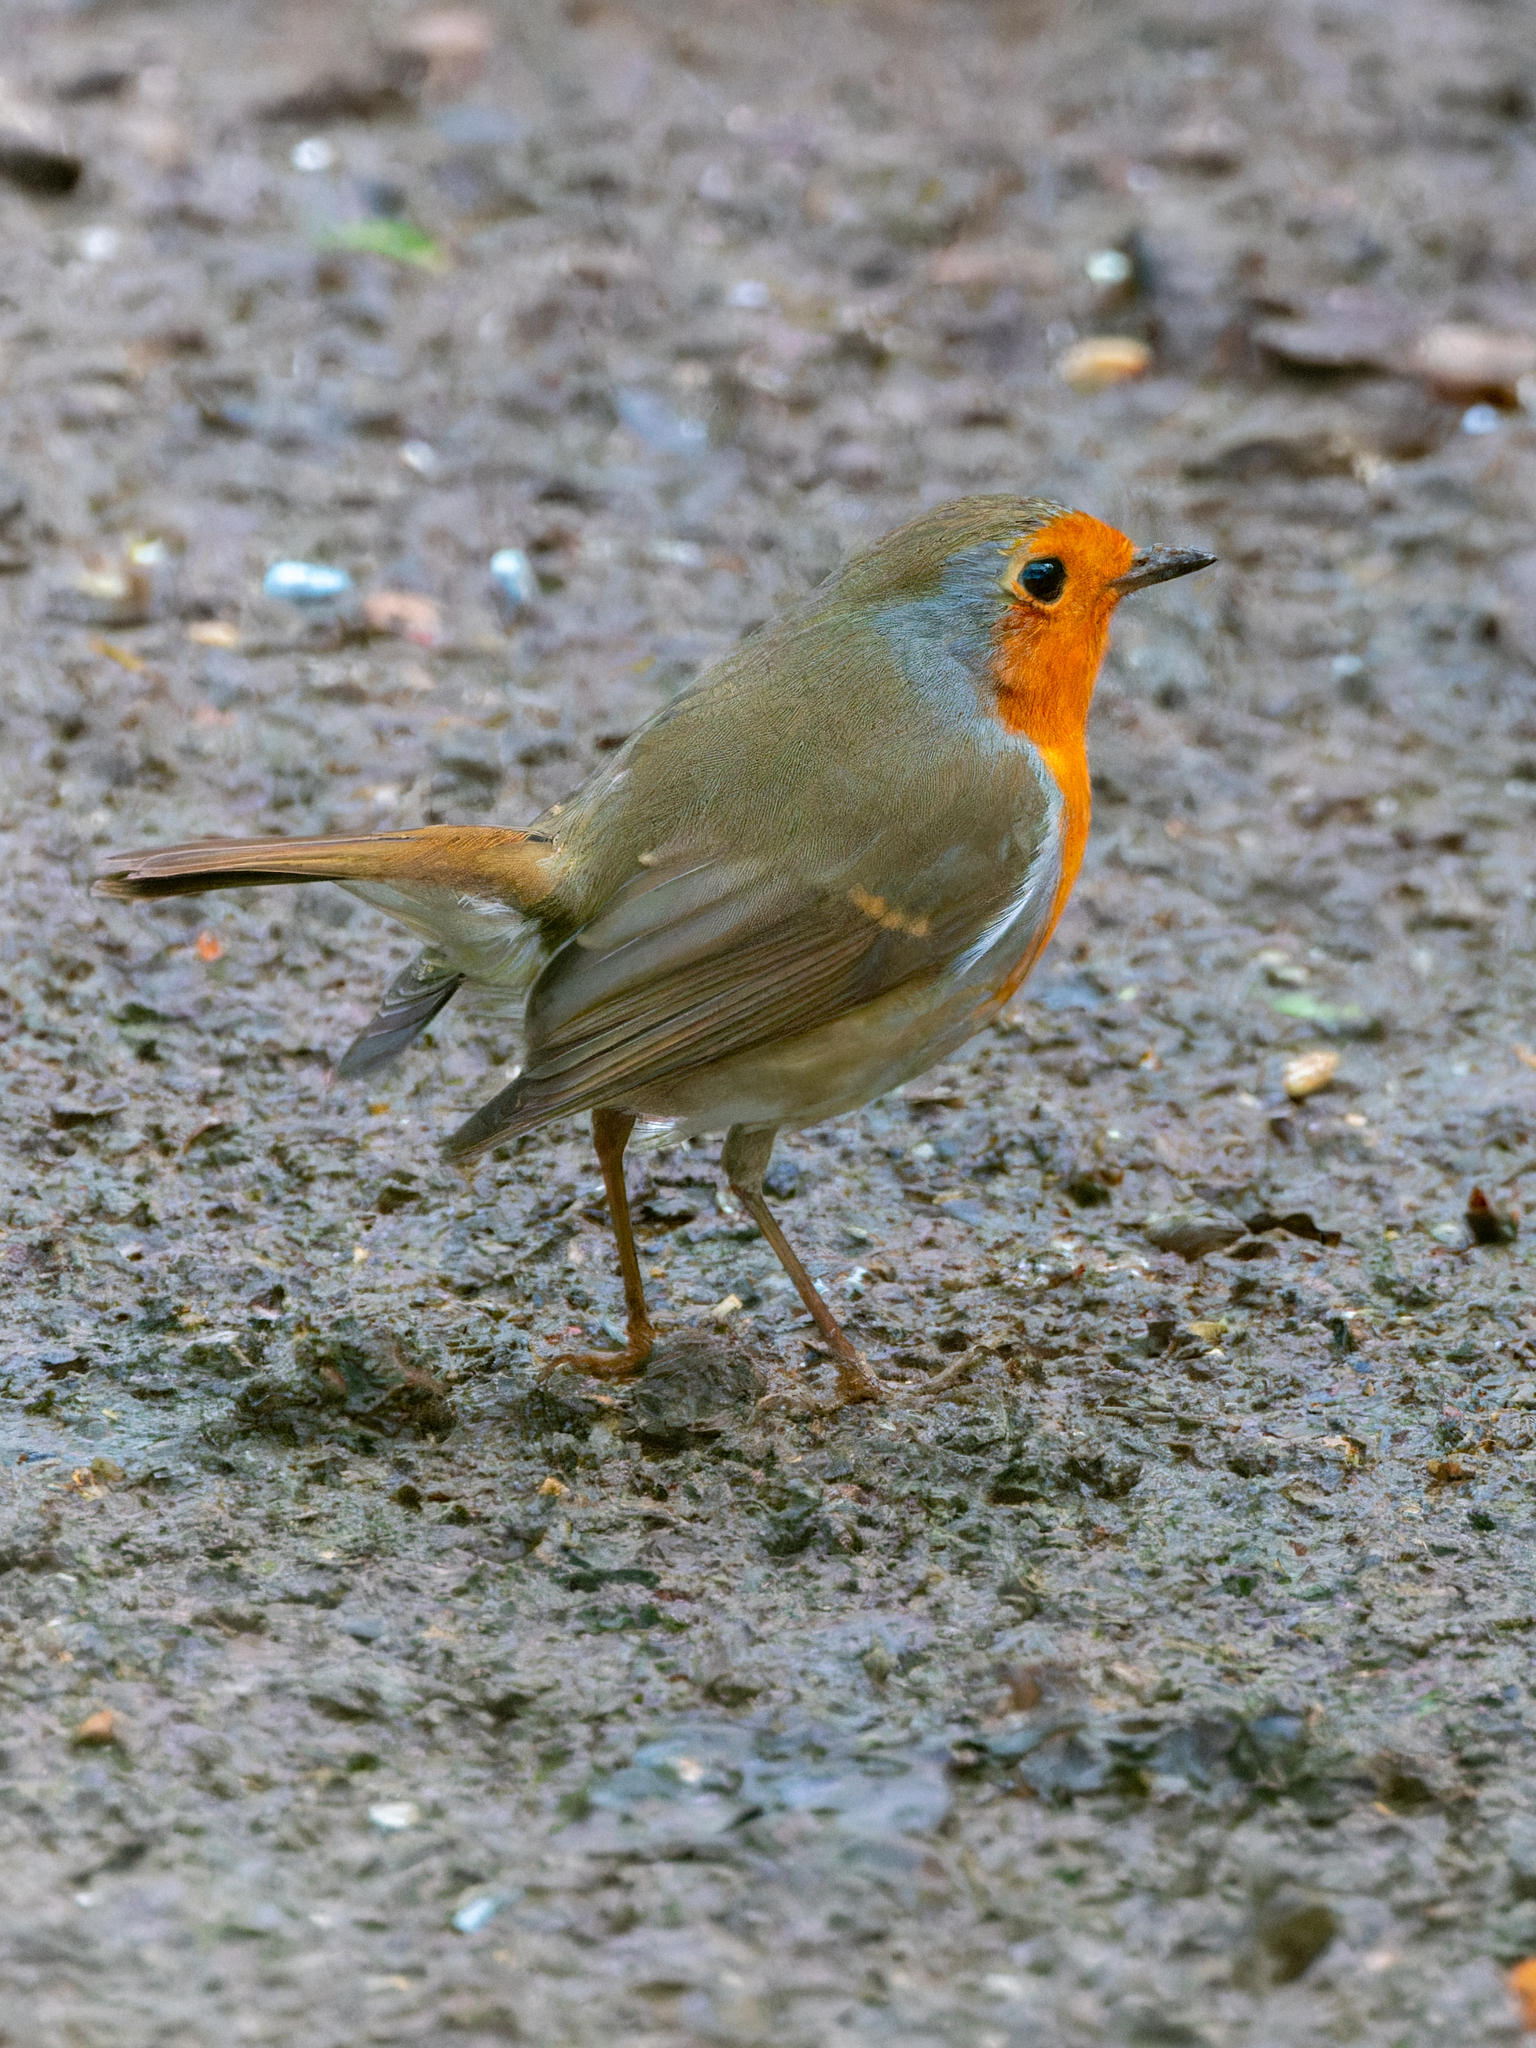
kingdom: Animalia
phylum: Chordata
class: Aves
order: Passeriformes
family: Muscicapidae
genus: Erithacus
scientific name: Erithacus rubecula
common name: European robin
